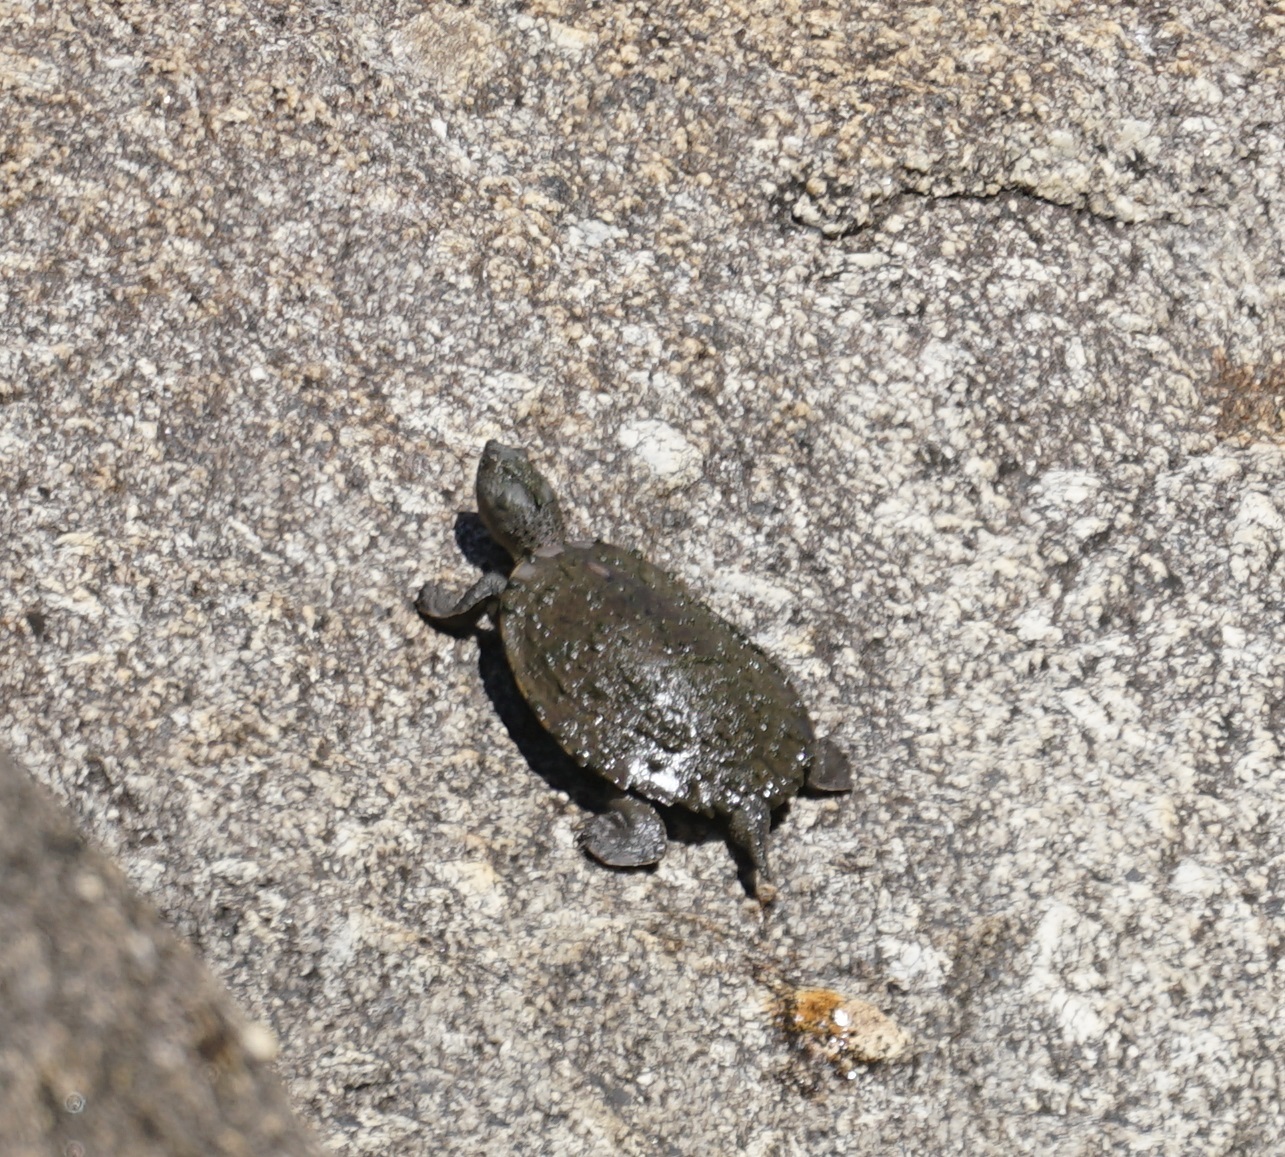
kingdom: Animalia
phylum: Chordata
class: Testudines
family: Chelidae
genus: Myuchelys
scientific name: Myuchelys latisternum
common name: Serrated snapping turtle
